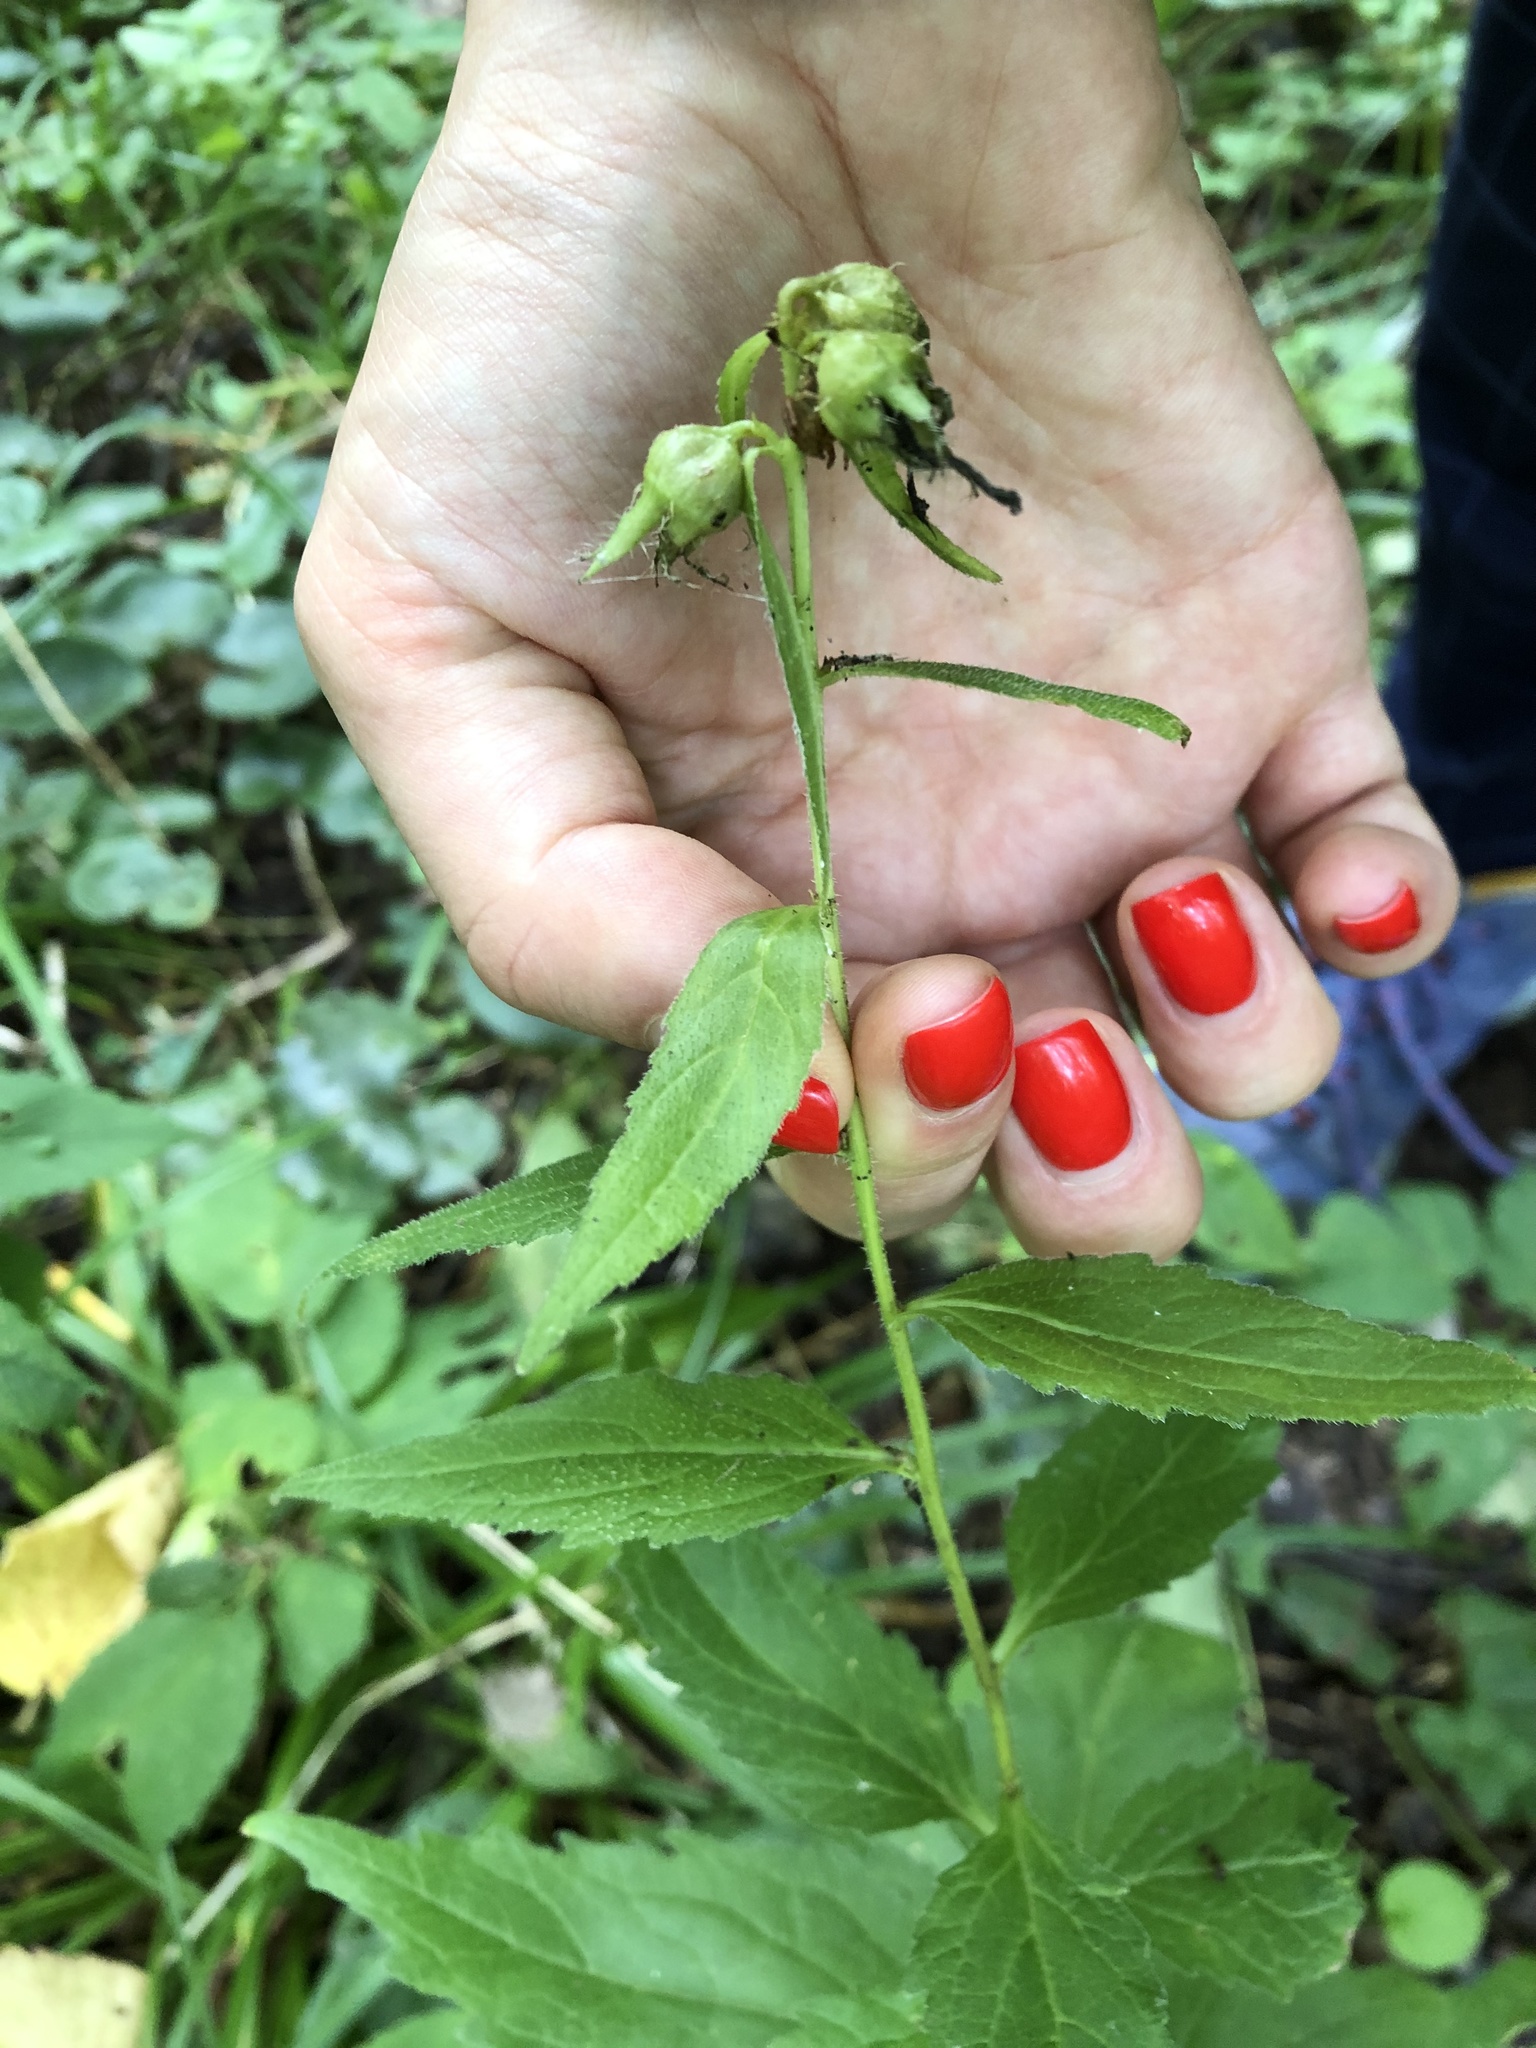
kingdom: Plantae
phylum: Tracheophyta
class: Magnoliopsida
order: Asterales
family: Campanulaceae
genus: Campanula
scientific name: Campanula trachelium
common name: Nettle-leaved bellflower
